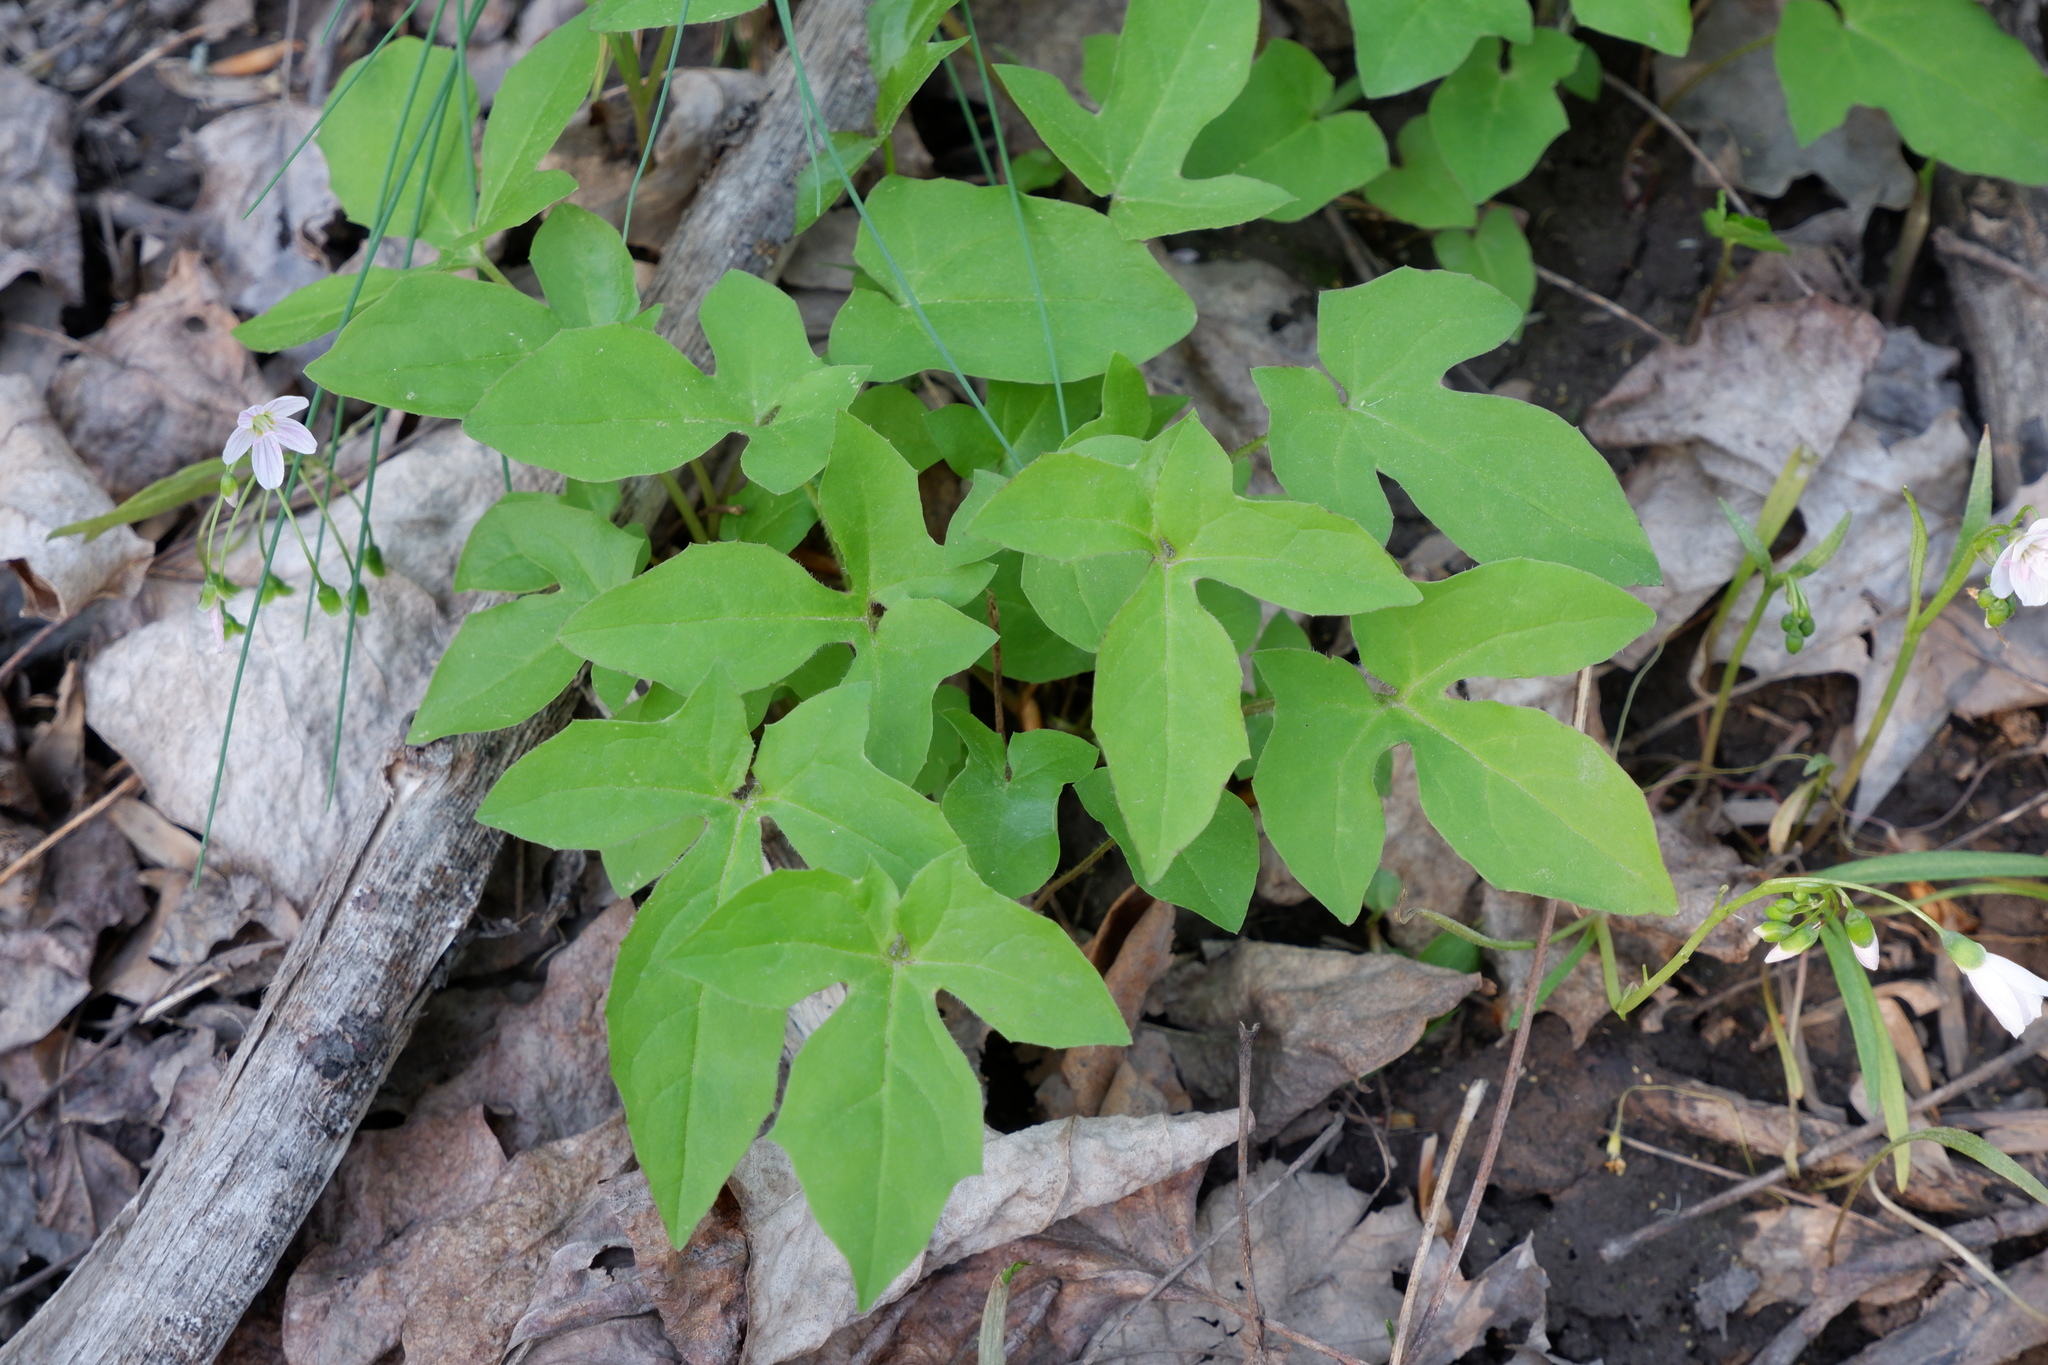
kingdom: Plantae
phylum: Tracheophyta
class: Magnoliopsida
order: Asterales
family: Asteraceae
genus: Nabalus
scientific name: Nabalus trifoliolatus
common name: Gall-of-the-earth
